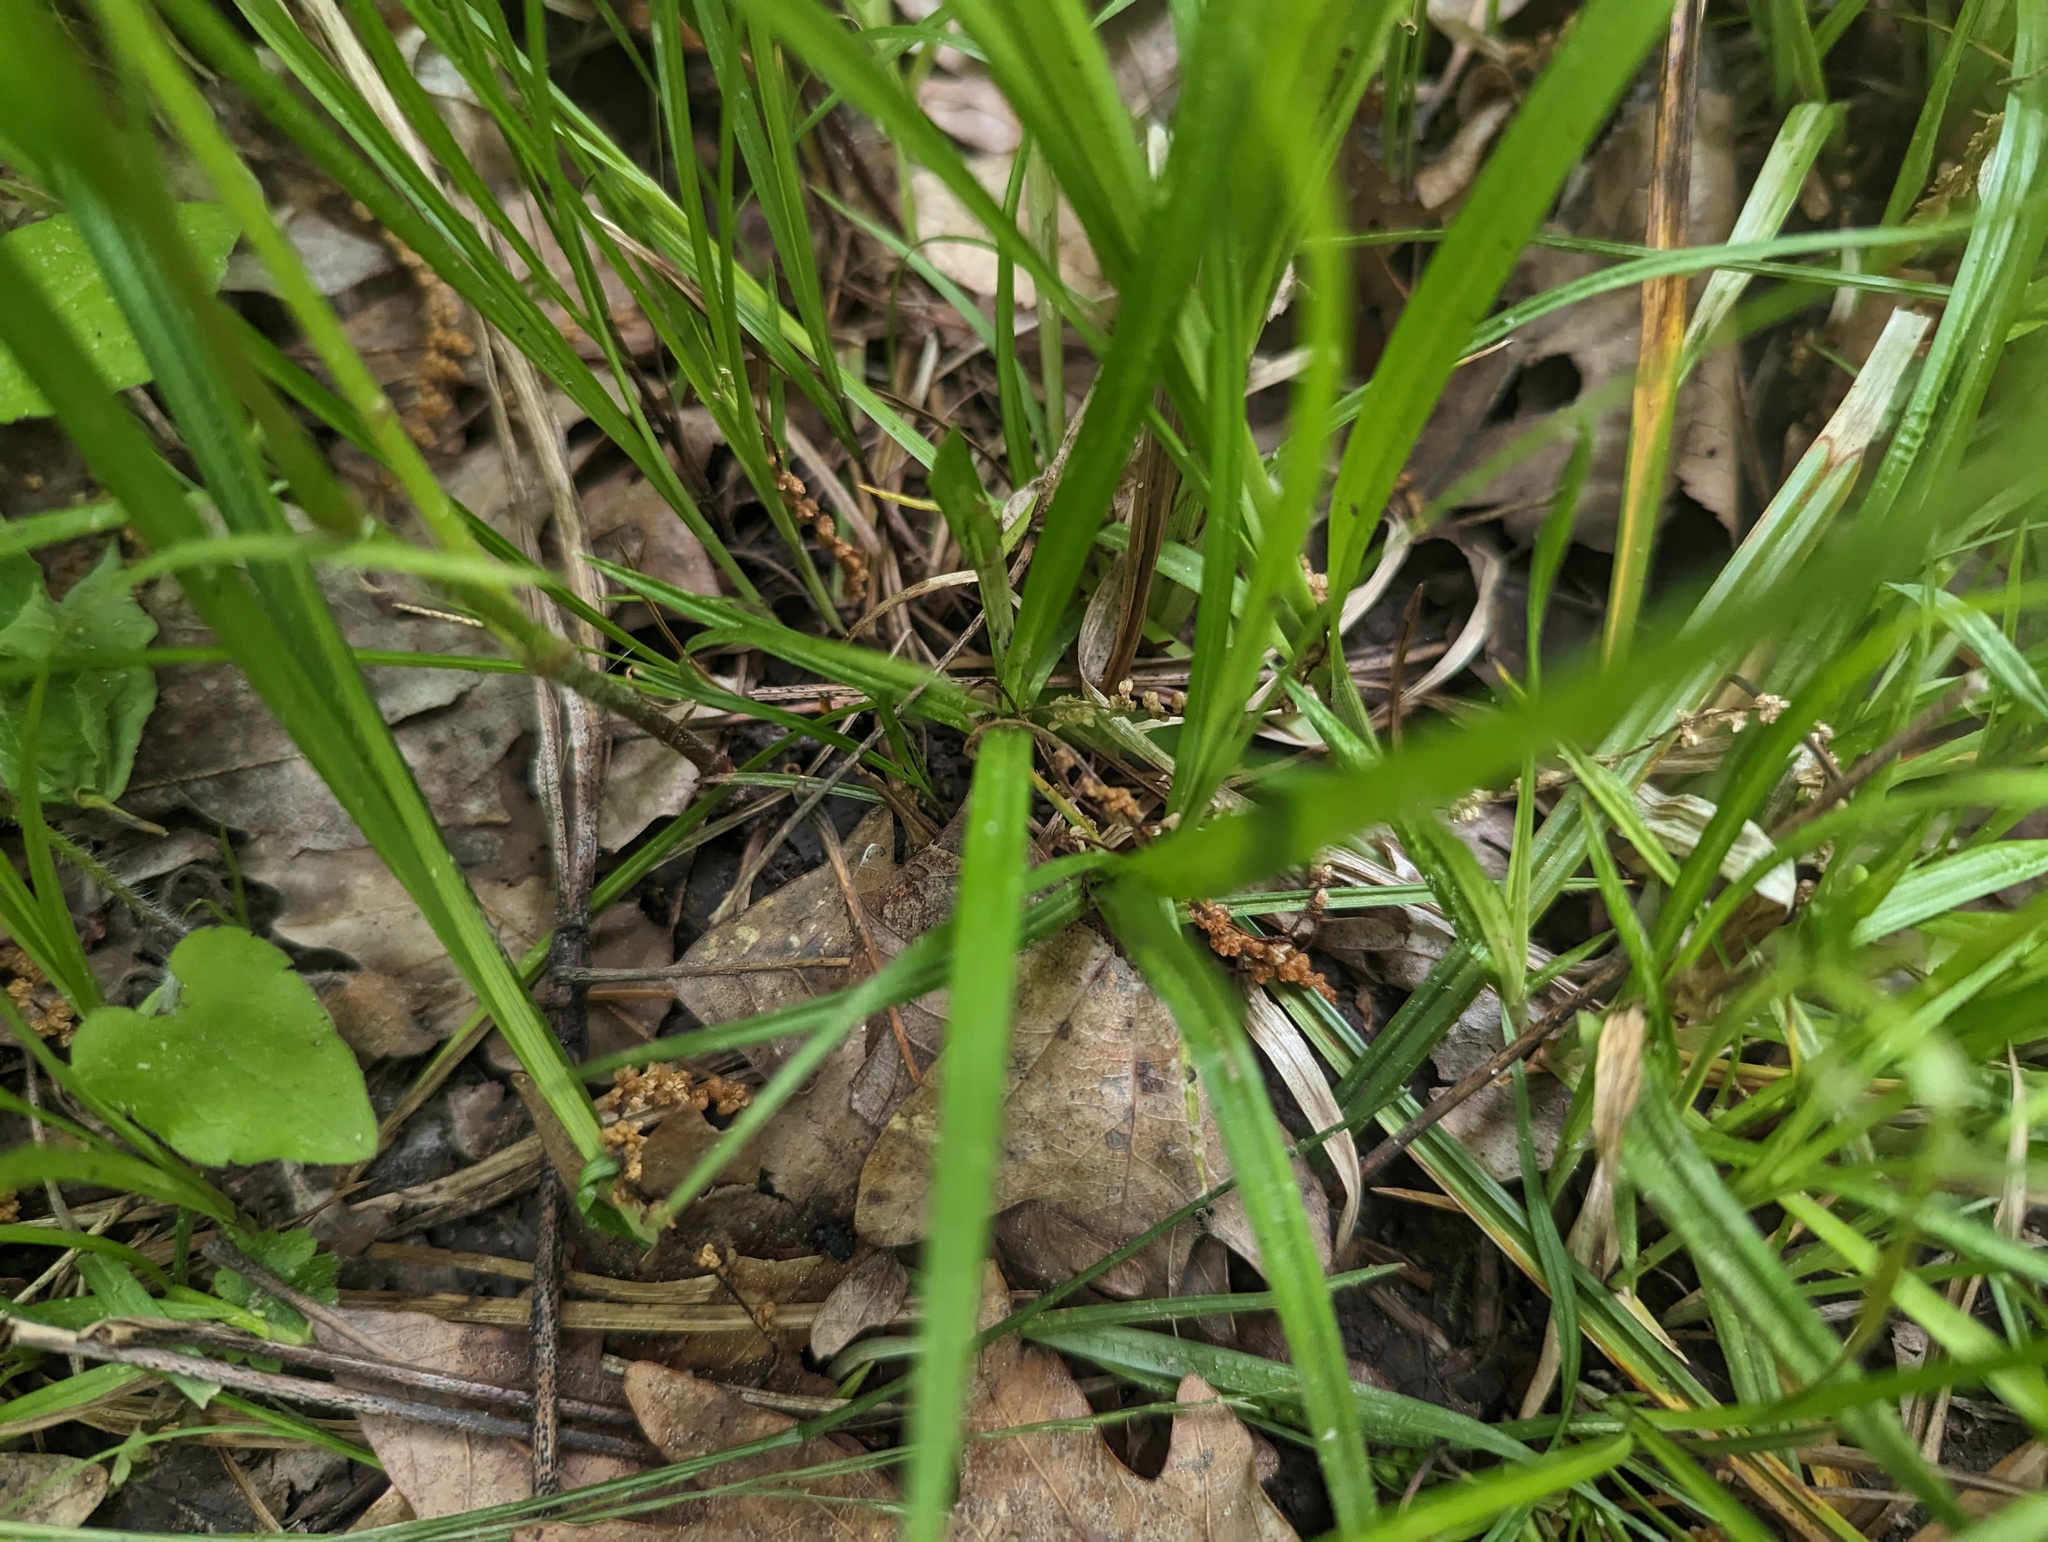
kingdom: Plantae
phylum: Tracheophyta
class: Liliopsida
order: Poales
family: Cyperaceae
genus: Carex
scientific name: Carex grisea
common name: Eastern narrow-leaved sedge
